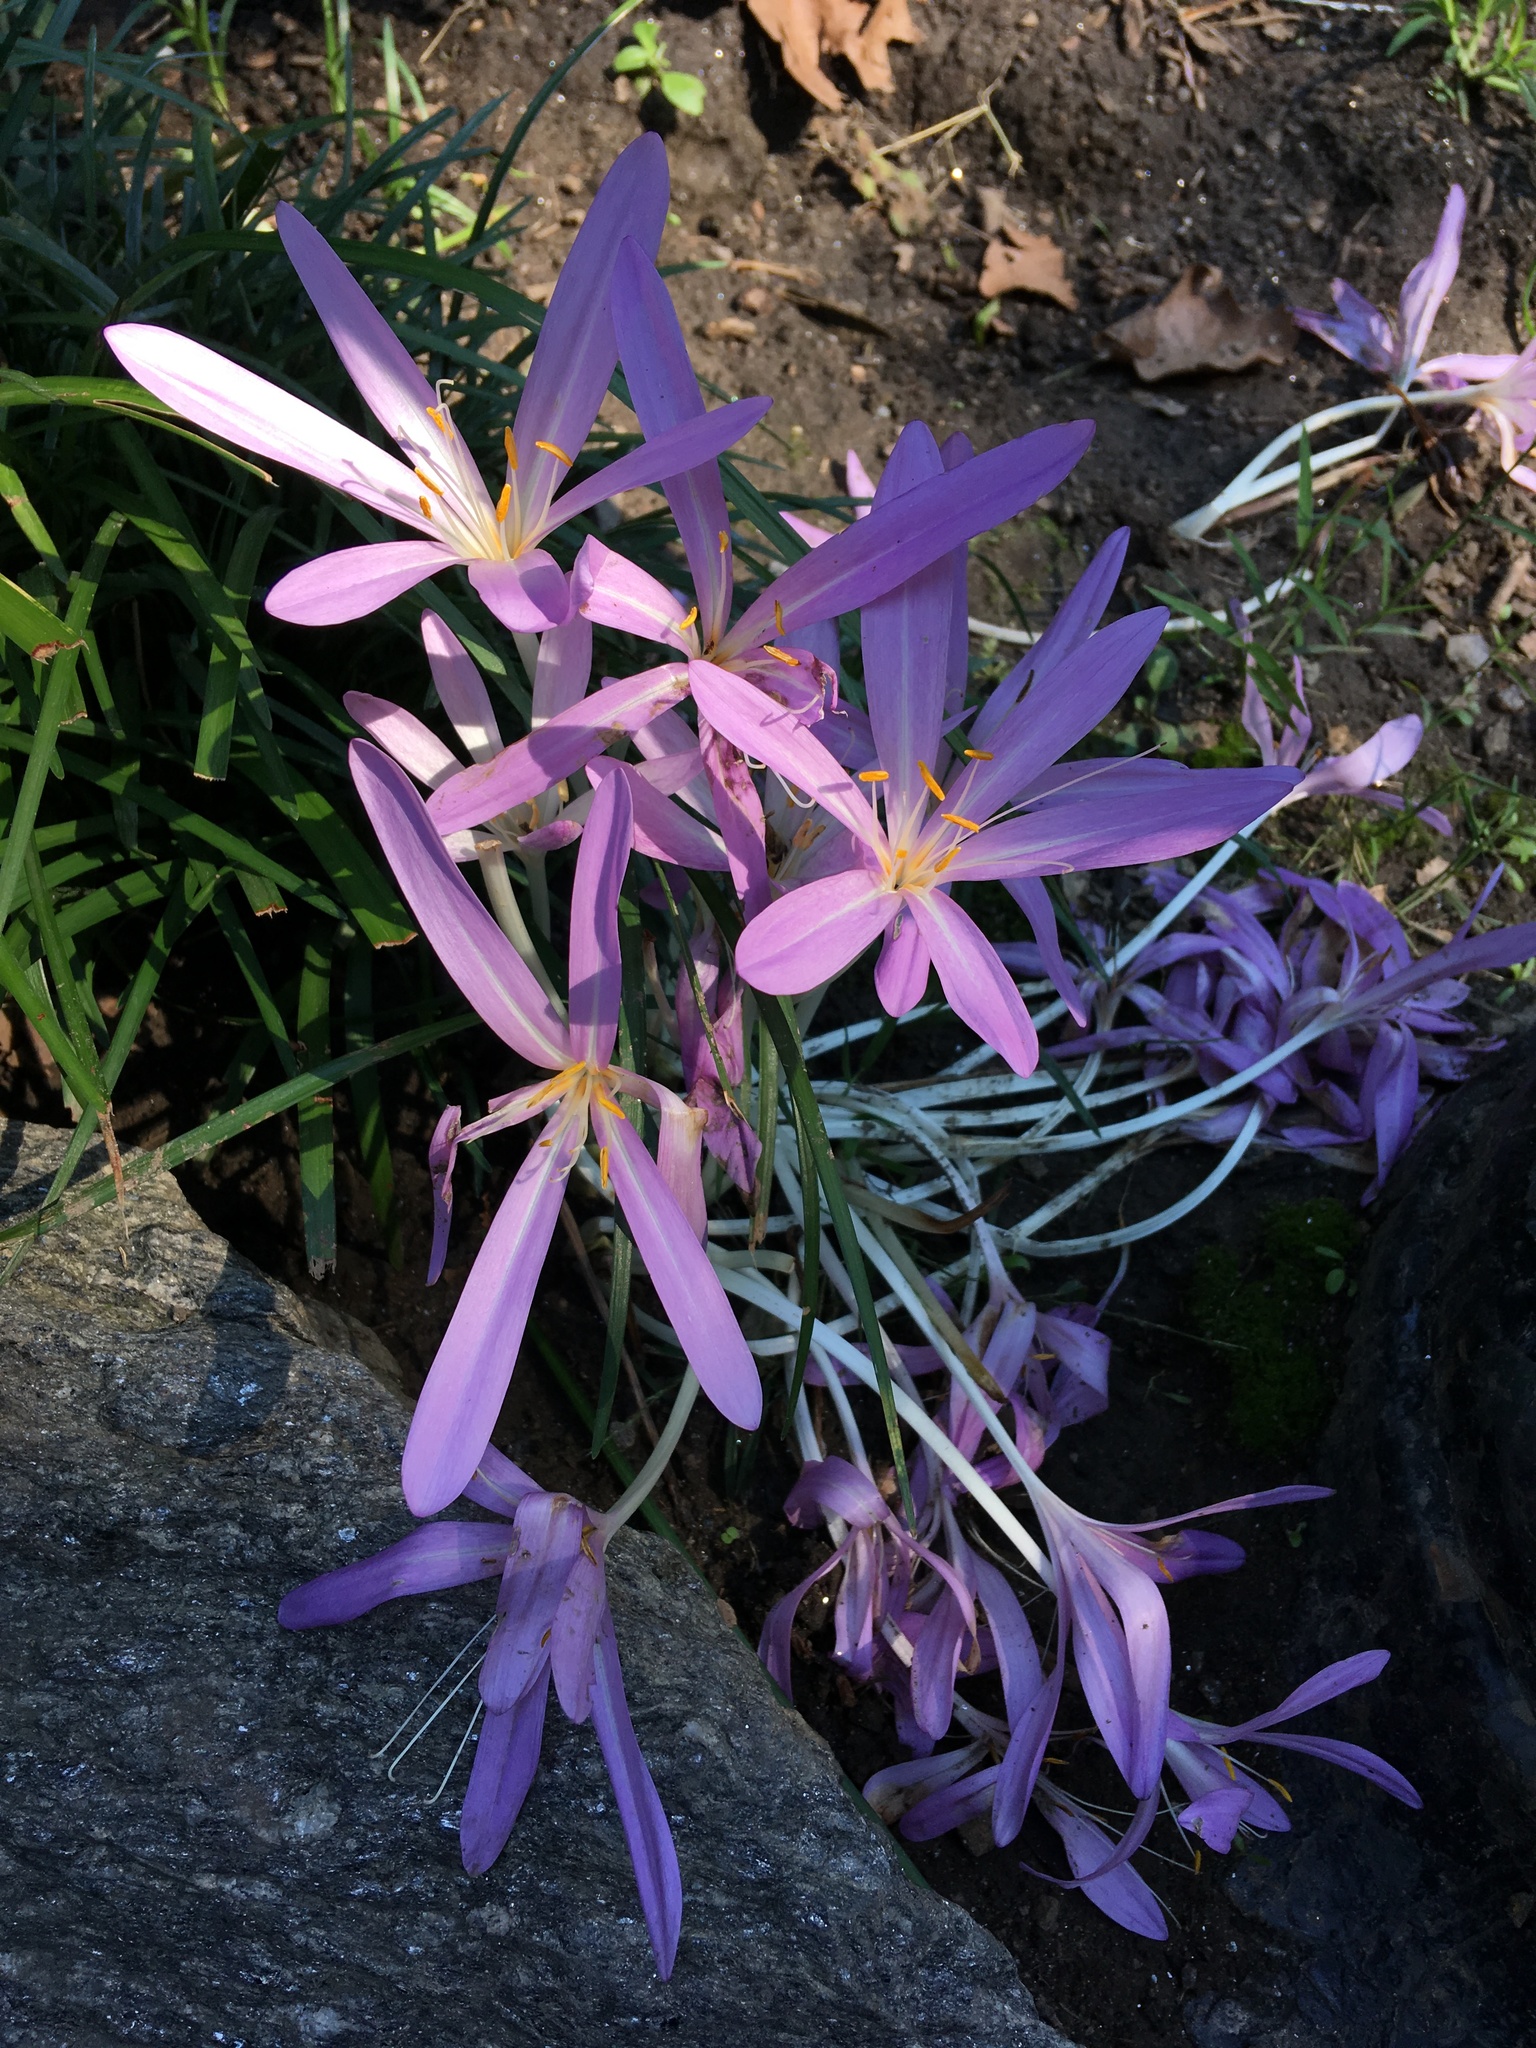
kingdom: Plantae
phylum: Tracheophyta
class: Liliopsida
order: Liliales
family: Colchicaceae
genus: Colchicum
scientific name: Colchicum autumnale
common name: Autumn crocus
